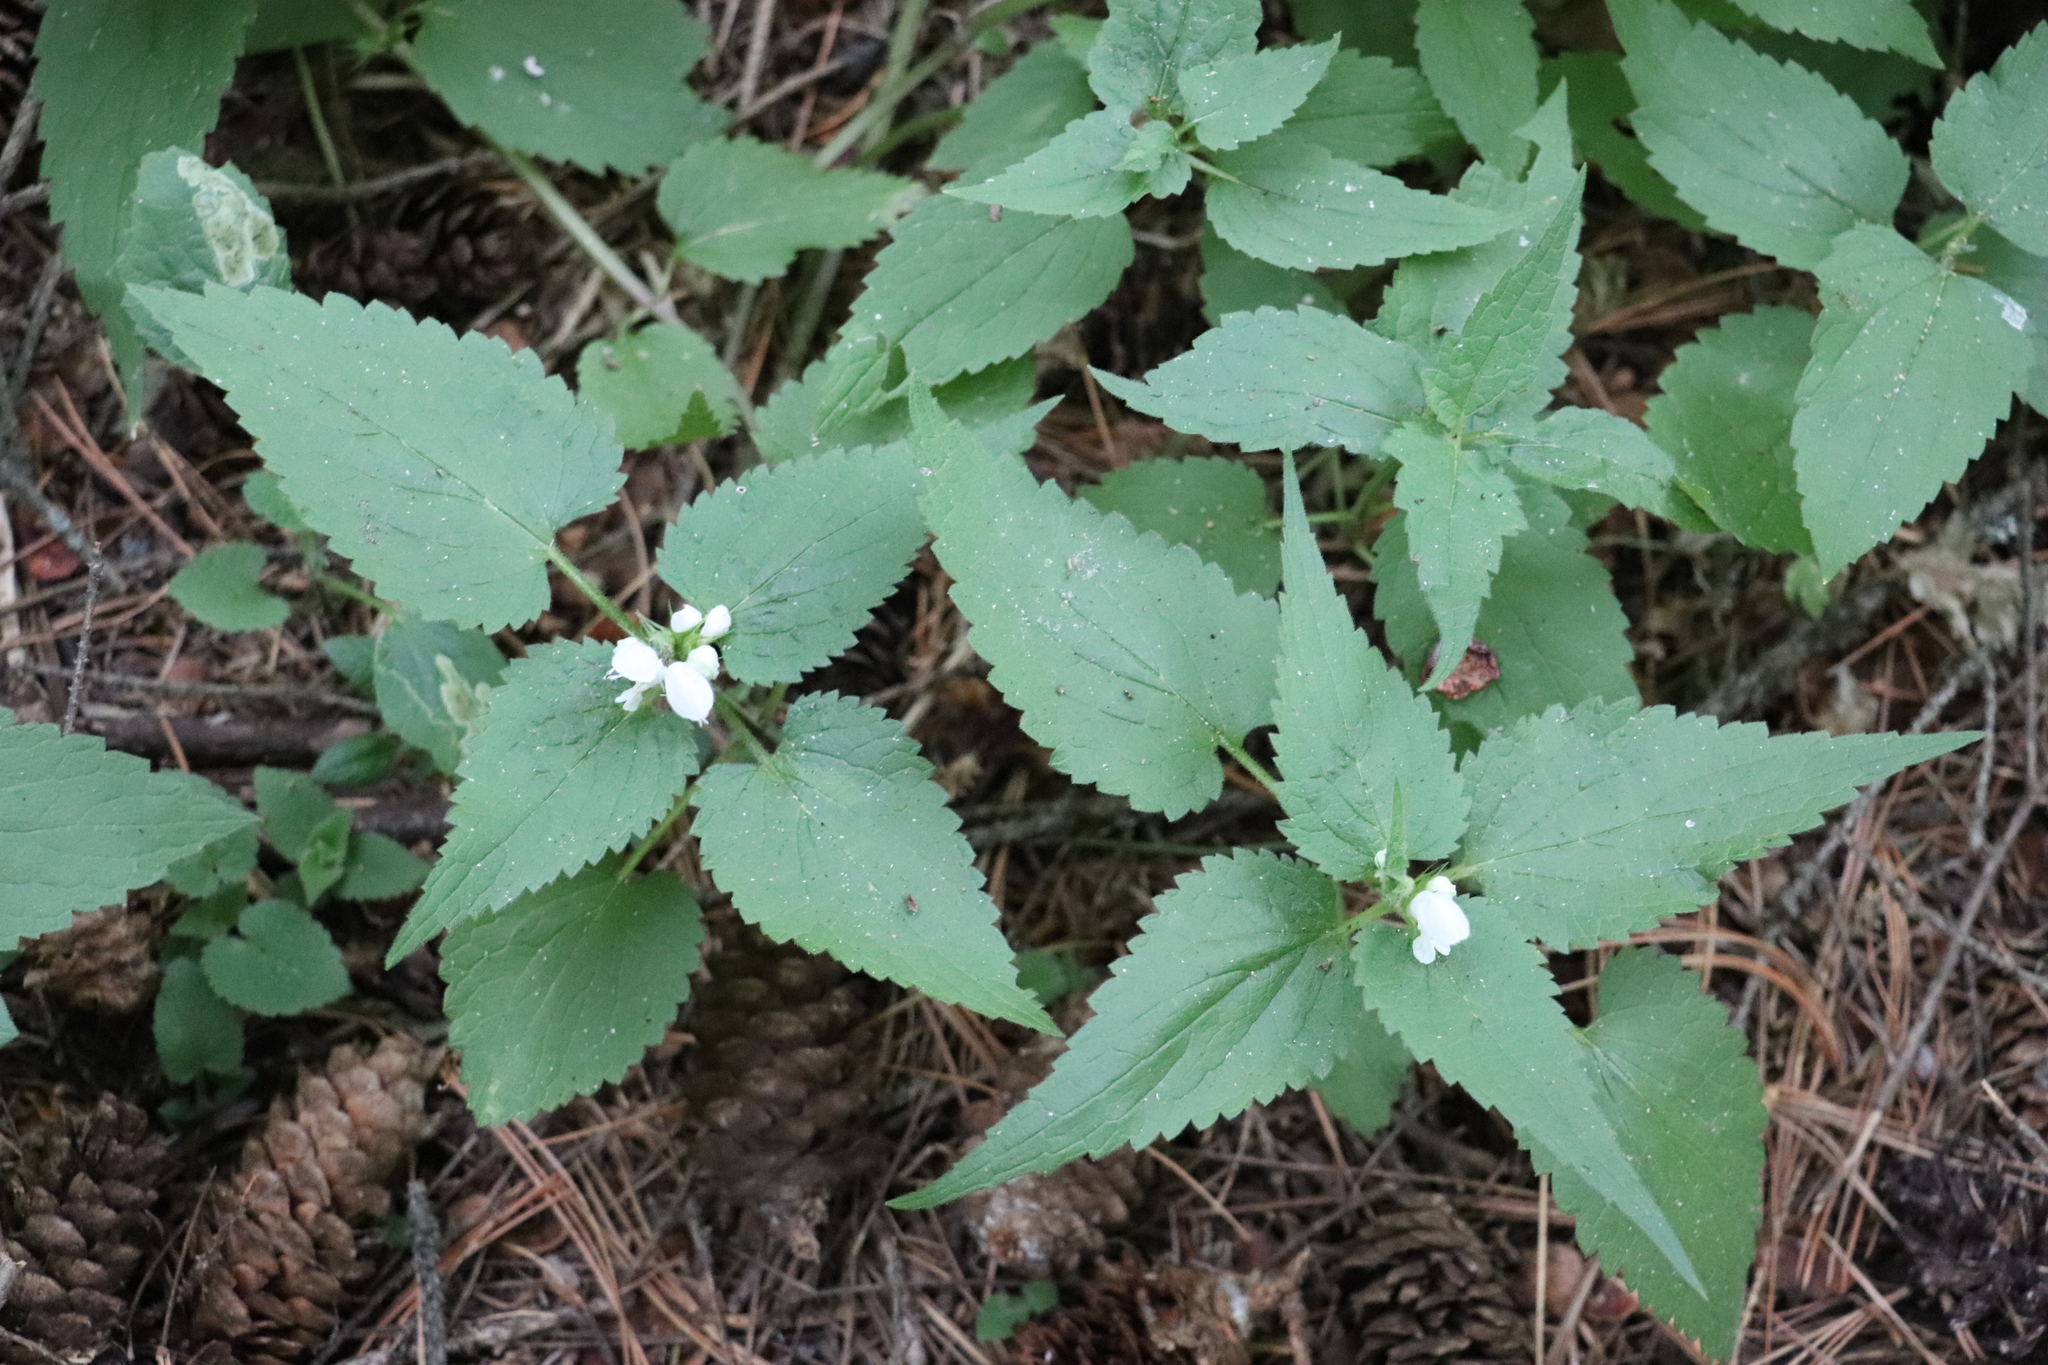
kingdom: Plantae
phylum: Tracheophyta
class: Magnoliopsida
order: Lamiales
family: Lamiaceae
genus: Lamium
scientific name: Lamium album
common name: White dead-nettle
